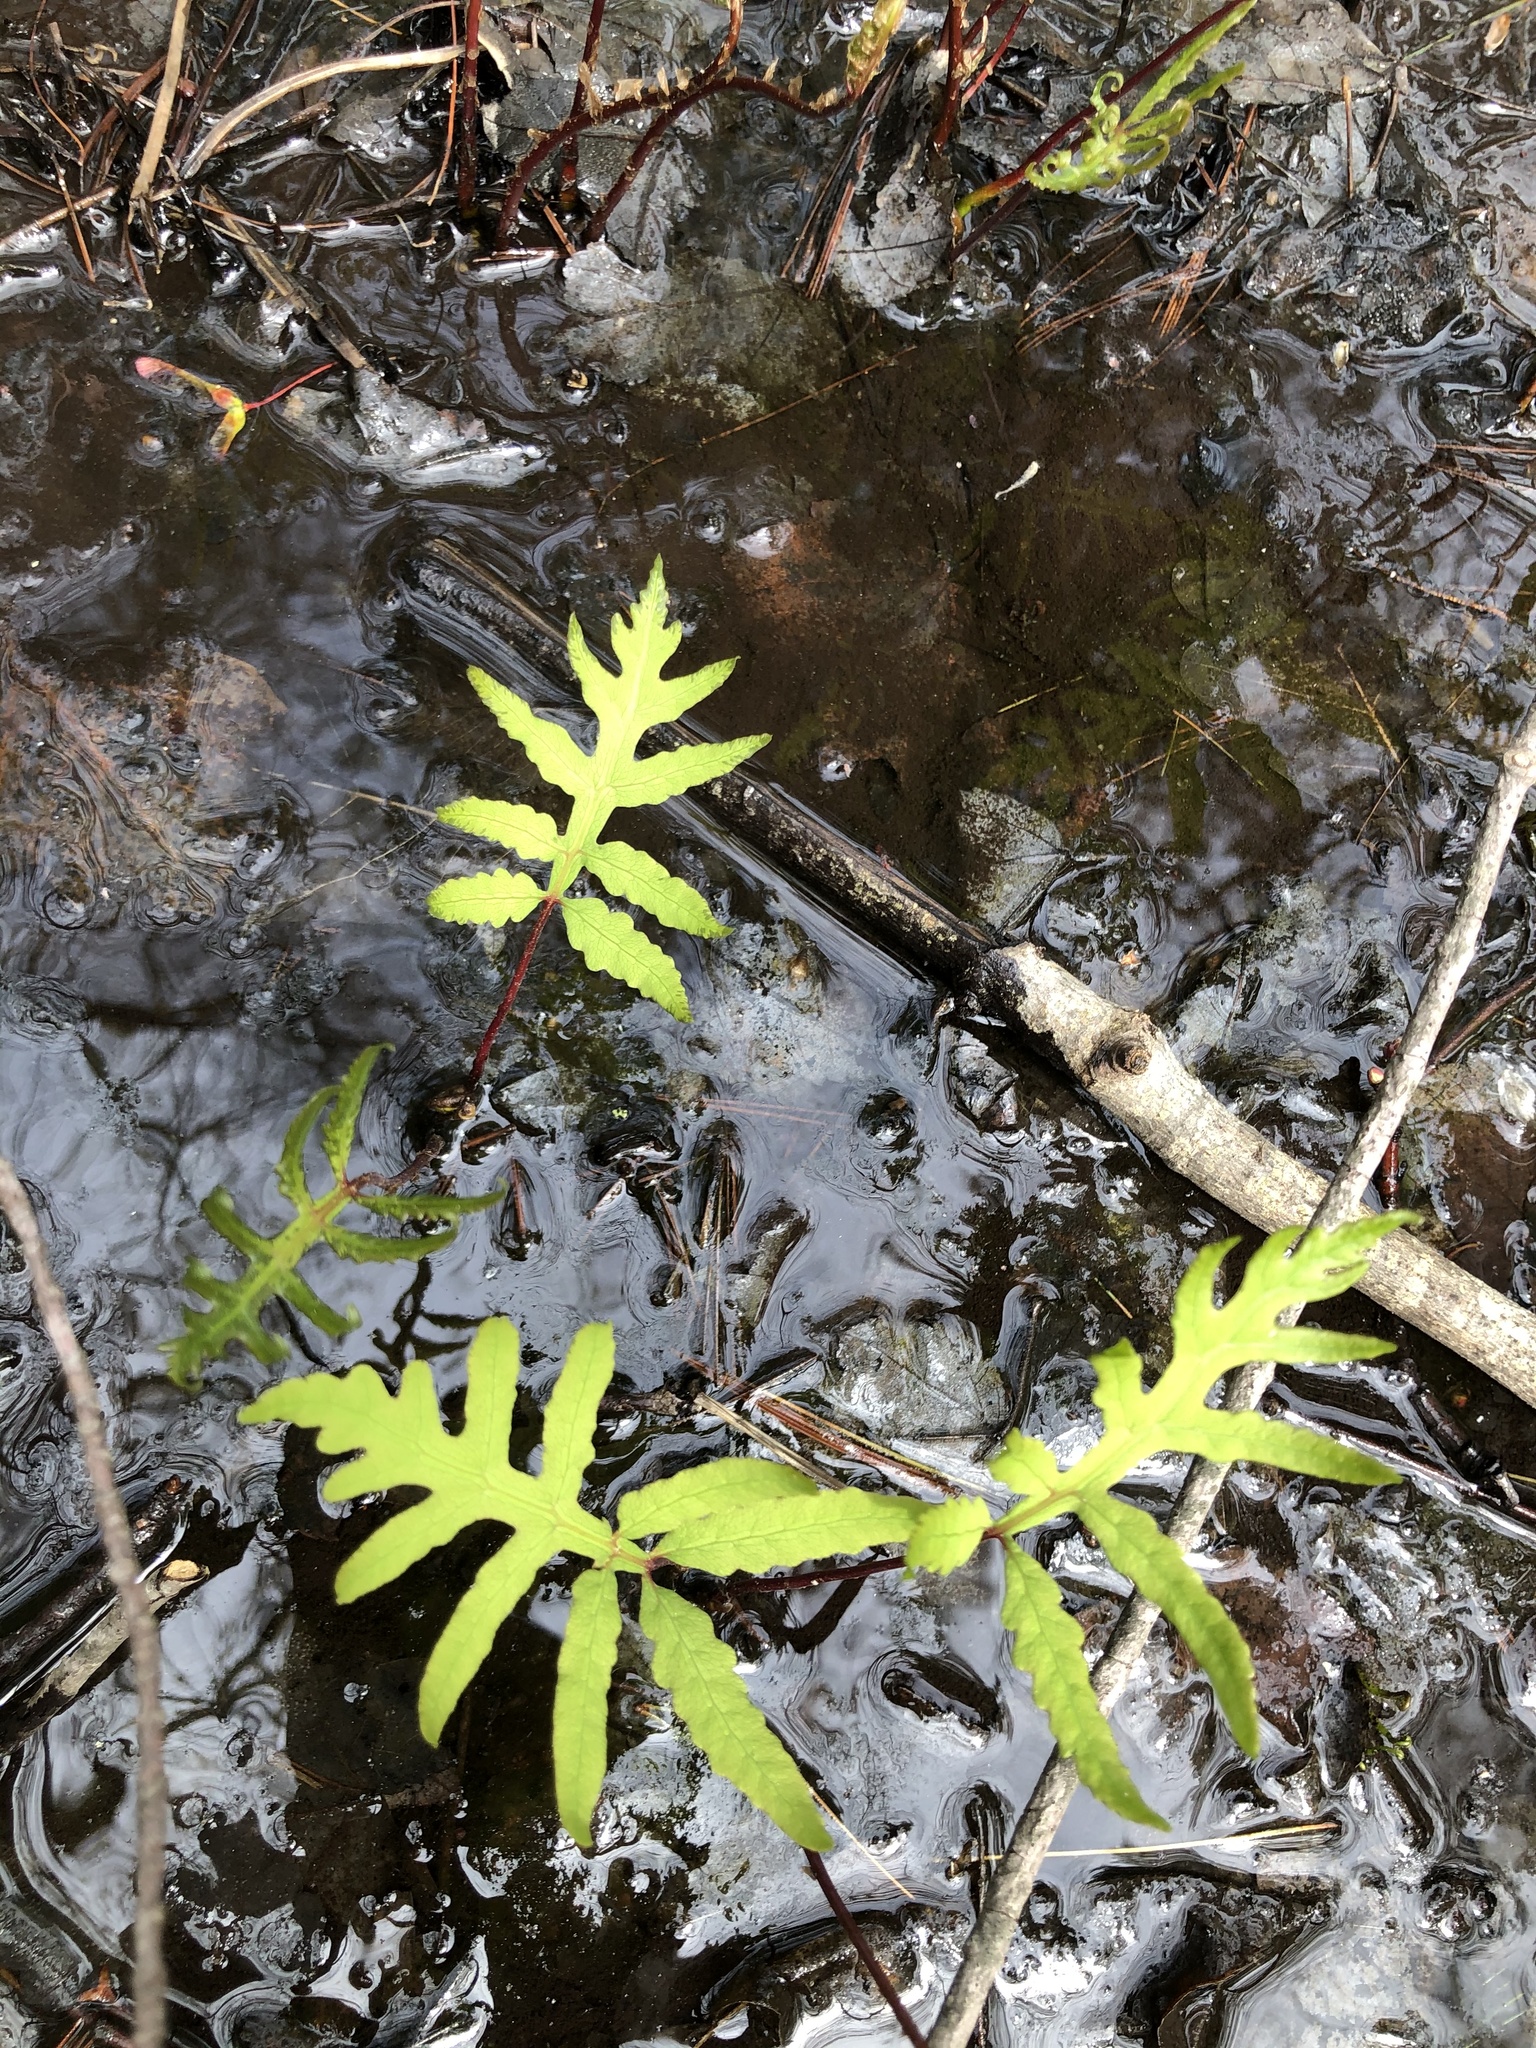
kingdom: Plantae
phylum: Tracheophyta
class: Polypodiopsida
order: Polypodiales
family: Onocleaceae
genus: Onoclea
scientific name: Onoclea sensibilis
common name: Sensitive fern
